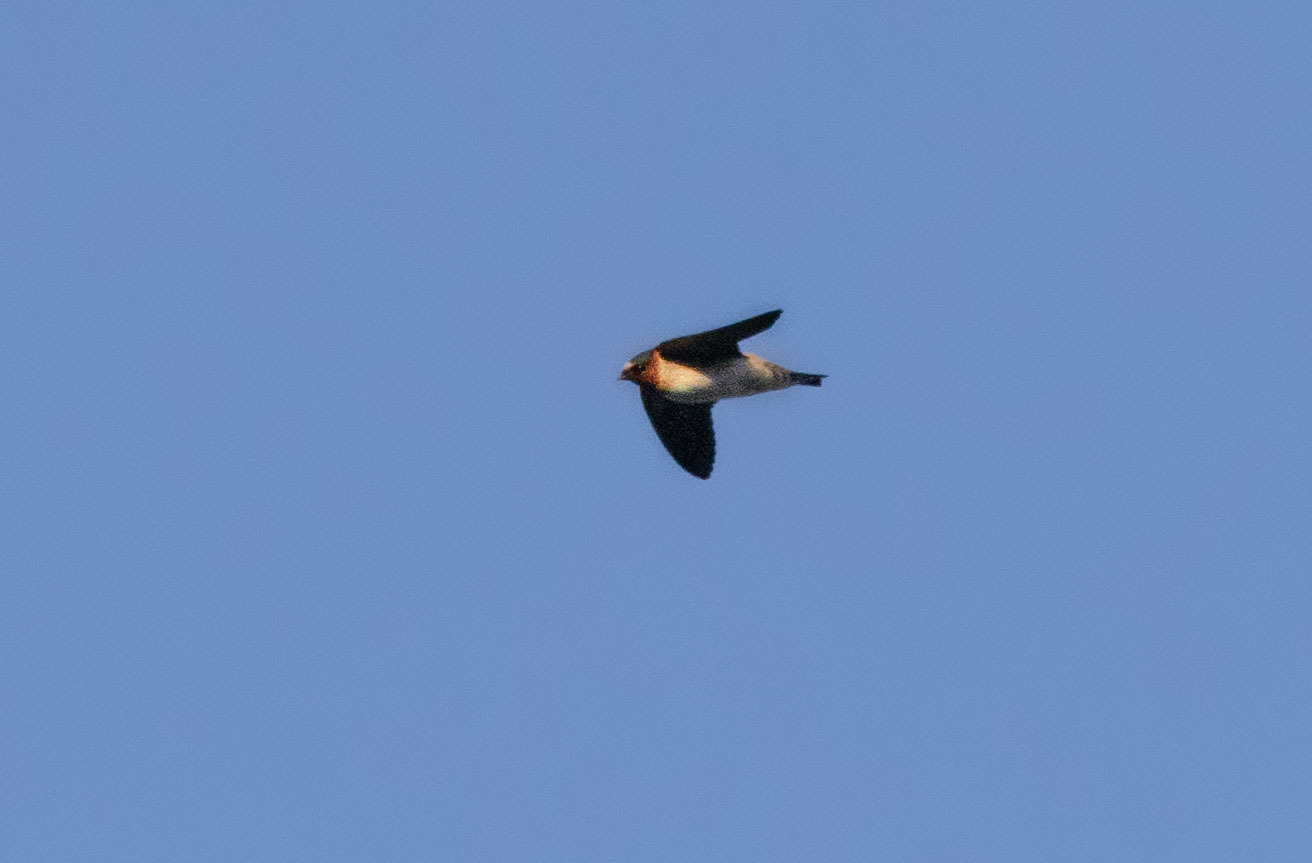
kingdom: Animalia
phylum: Chordata
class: Aves
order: Passeriformes
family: Hirundinidae
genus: Petrochelidon
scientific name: Petrochelidon pyrrhonota
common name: American cliff swallow
